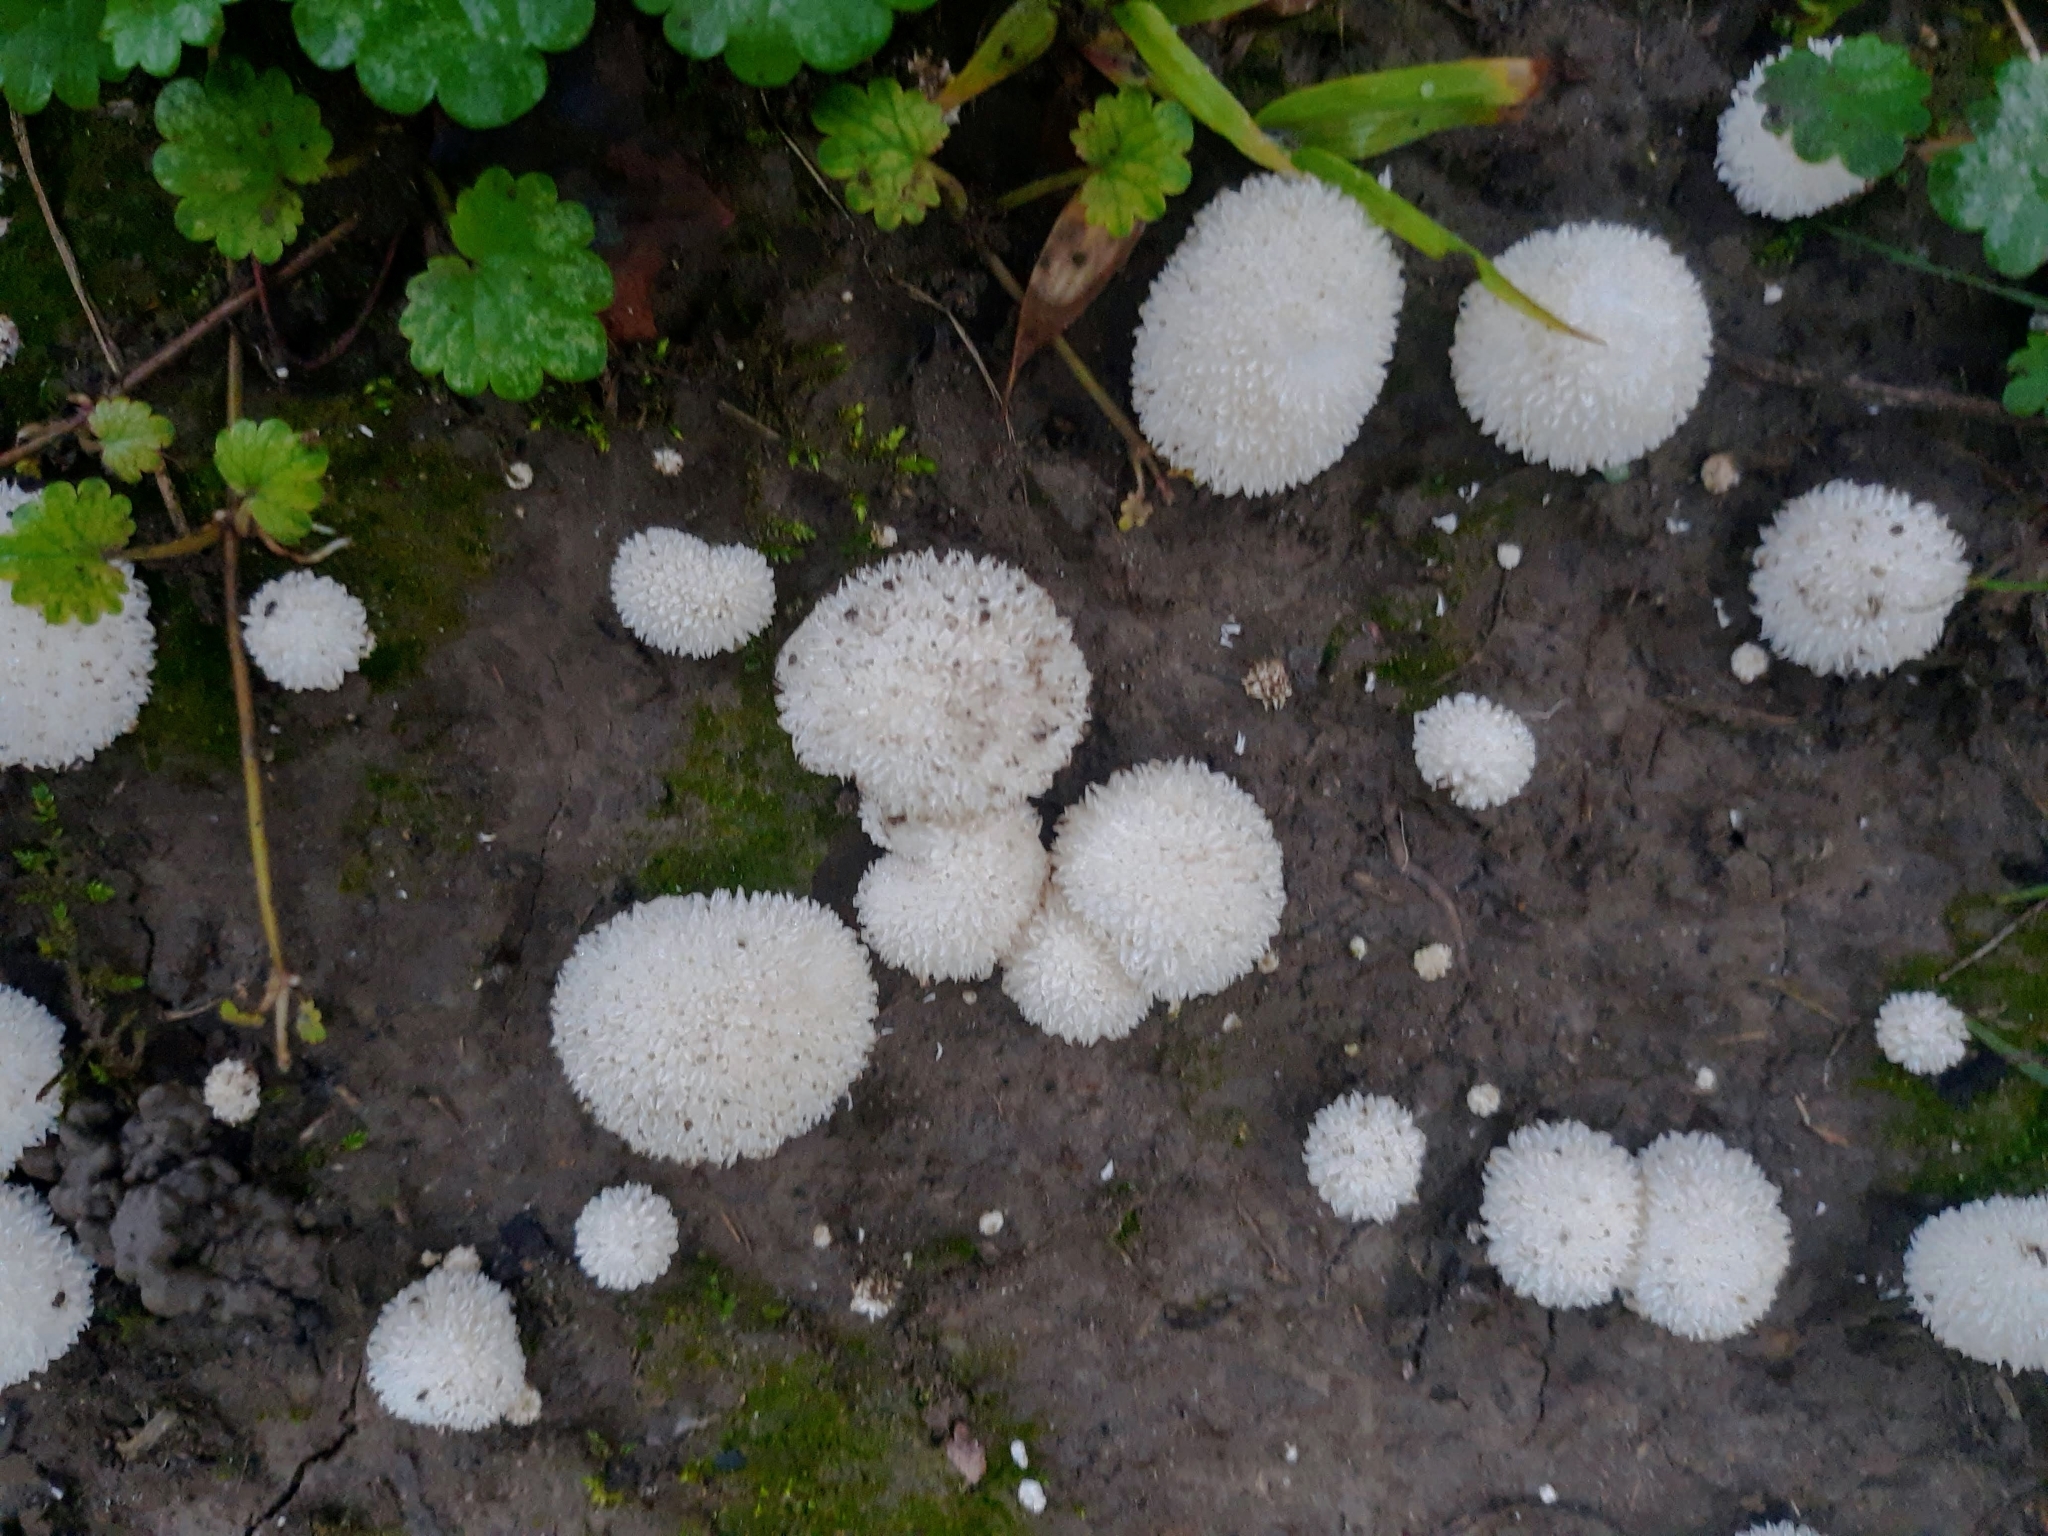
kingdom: Fungi
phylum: Basidiomycota
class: Agaricomycetes
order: Agaricales
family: Agaricaceae
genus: Lycoperdon
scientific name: Lycoperdon marginatum
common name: Peeling puffball
